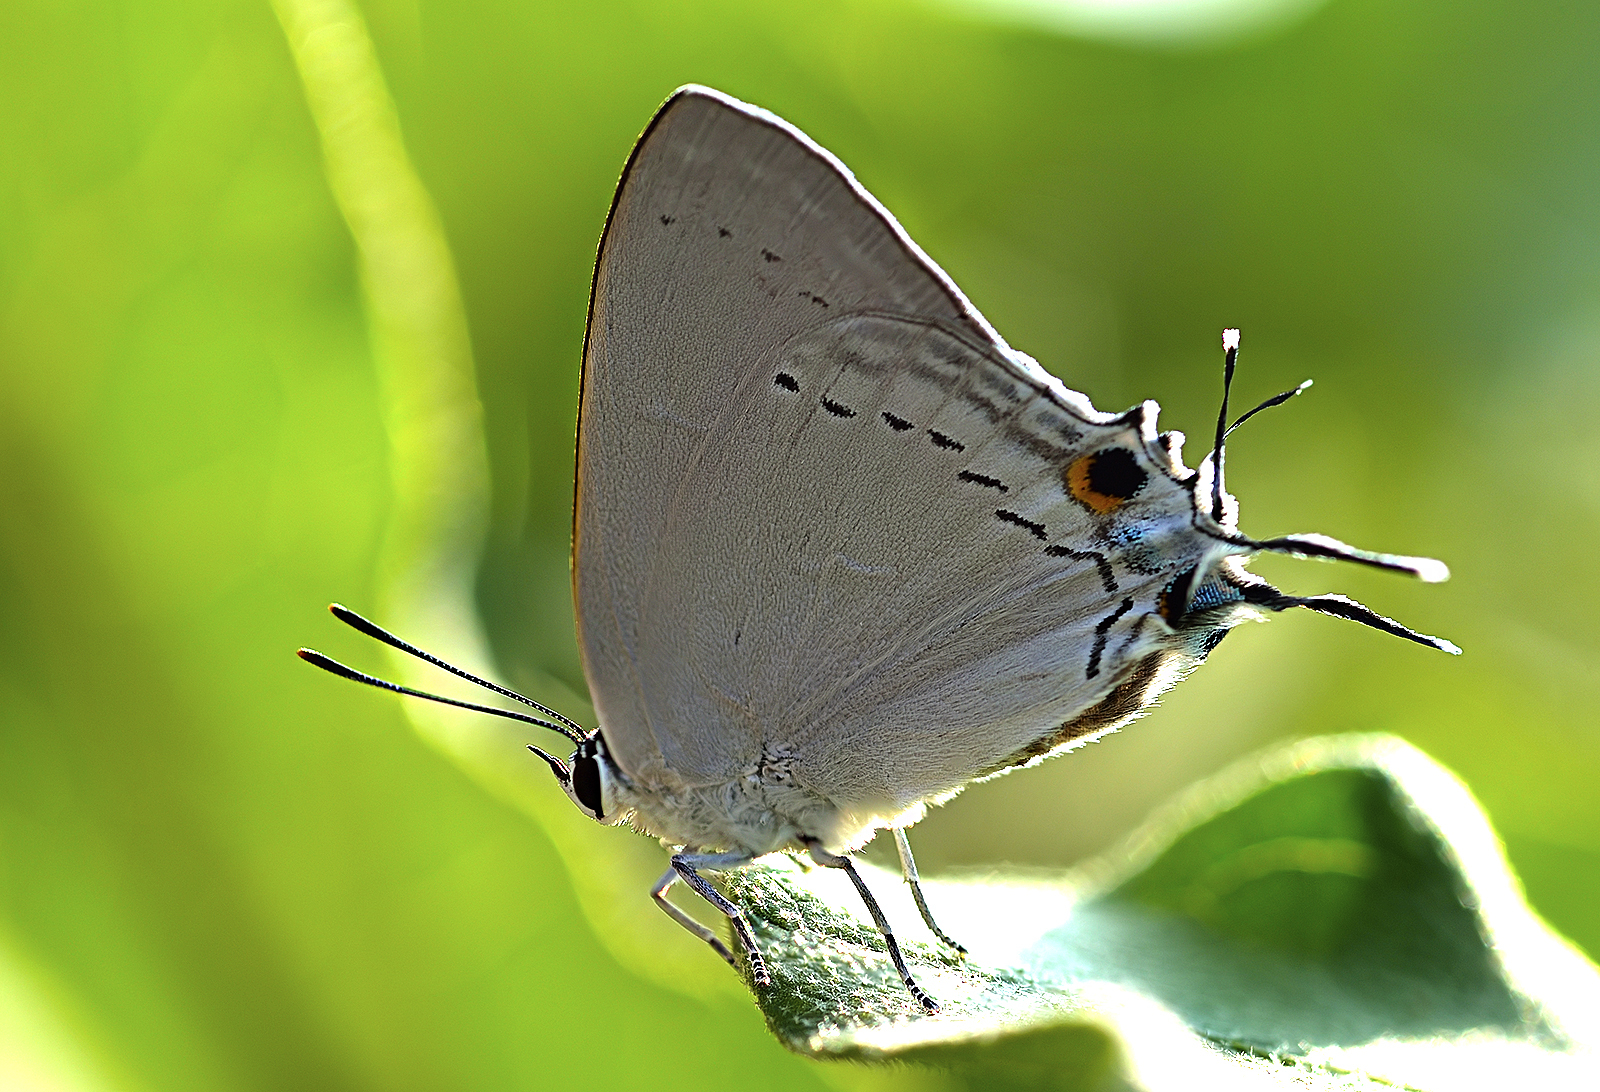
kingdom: Animalia
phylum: Arthropoda
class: Insecta
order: Lepidoptera
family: Lycaenidae
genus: Tajuria
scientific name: Tajuria cippus
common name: Peacock royal
